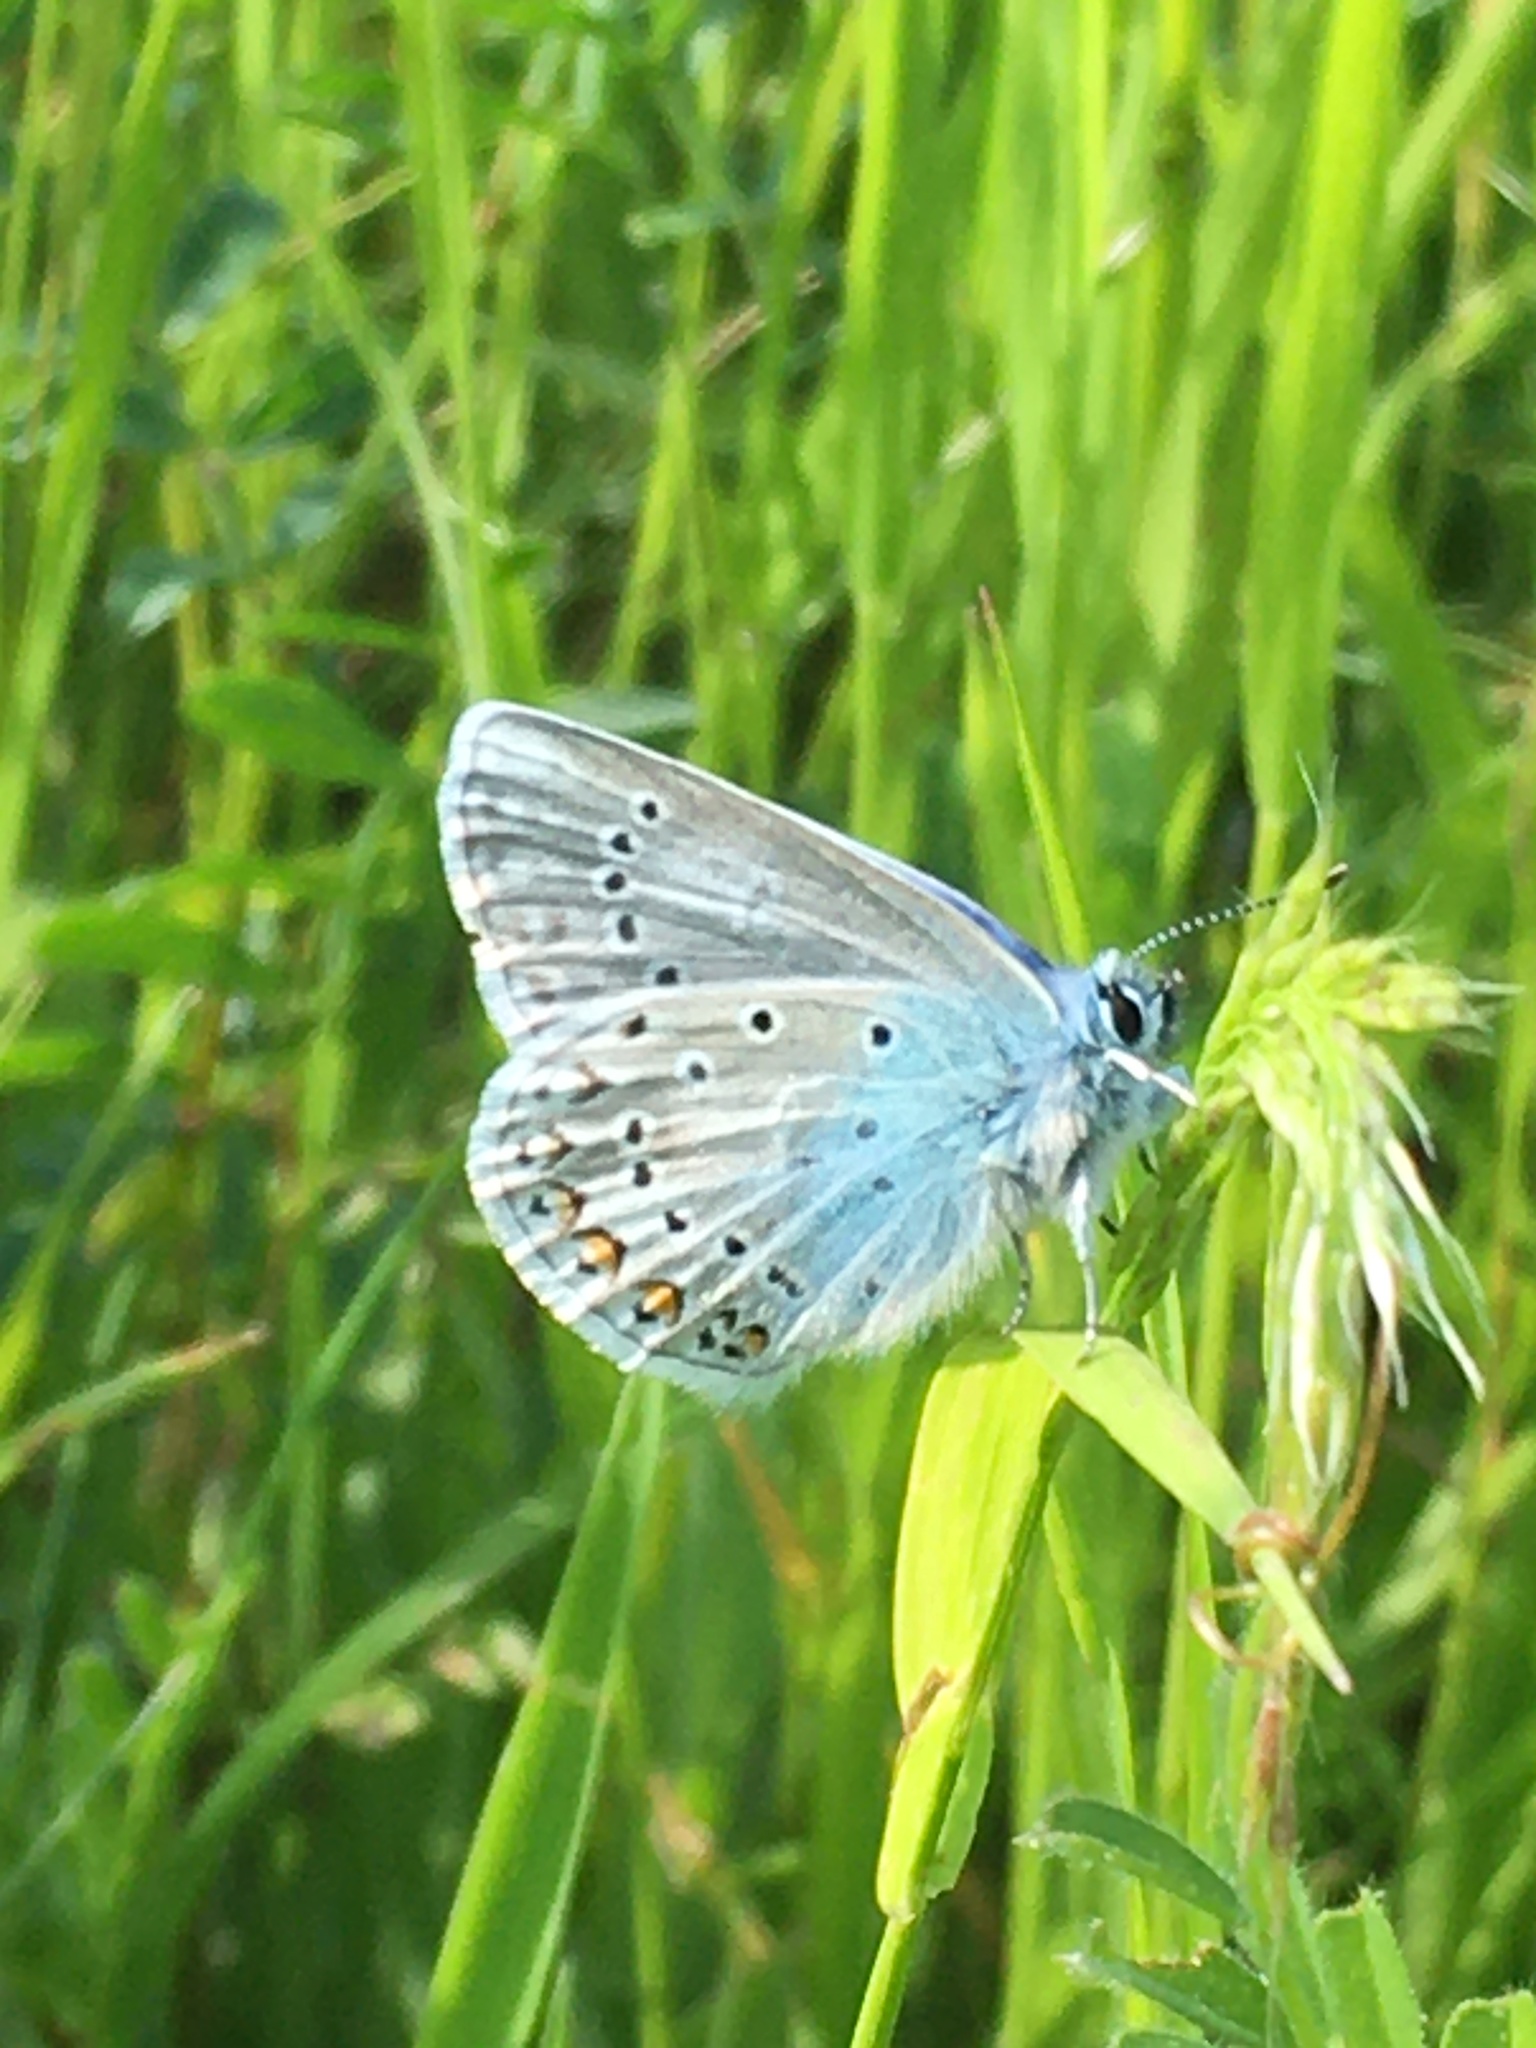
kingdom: Animalia
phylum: Arthropoda
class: Insecta
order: Lepidoptera
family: Lycaenidae
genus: Polyommatus
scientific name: Polyommatus icarus
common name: Common blue
